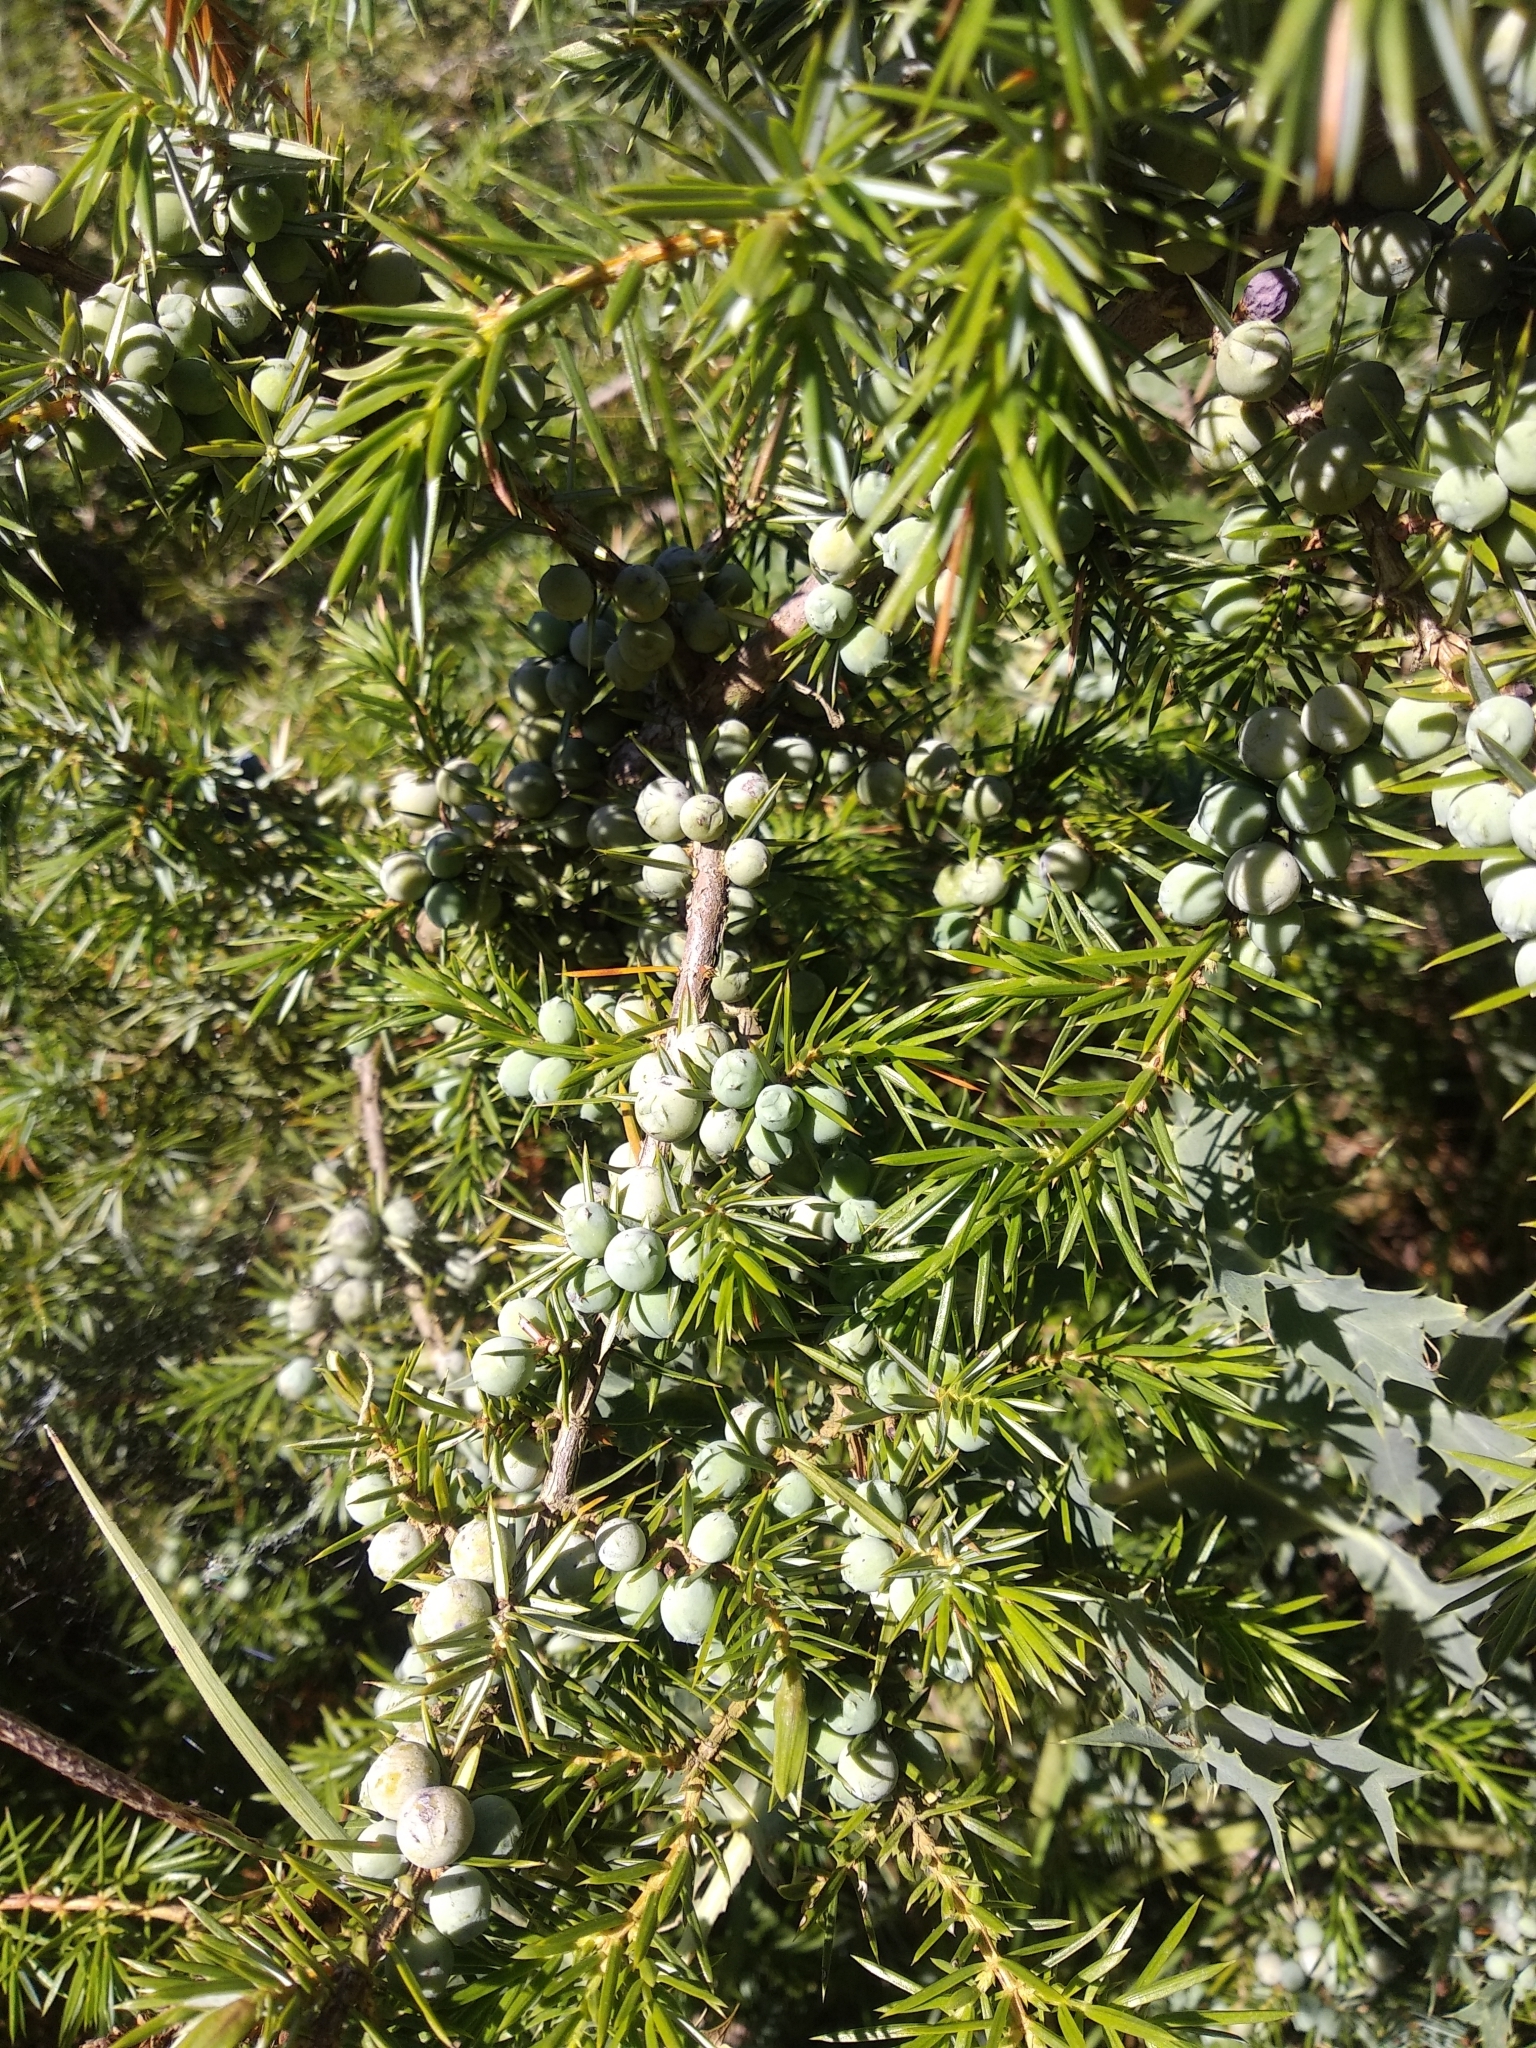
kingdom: Plantae
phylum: Tracheophyta
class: Pinopsida
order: Pinales
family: Cupressaceae
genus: Juniperus
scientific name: Juniperus communis
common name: Common juniper
